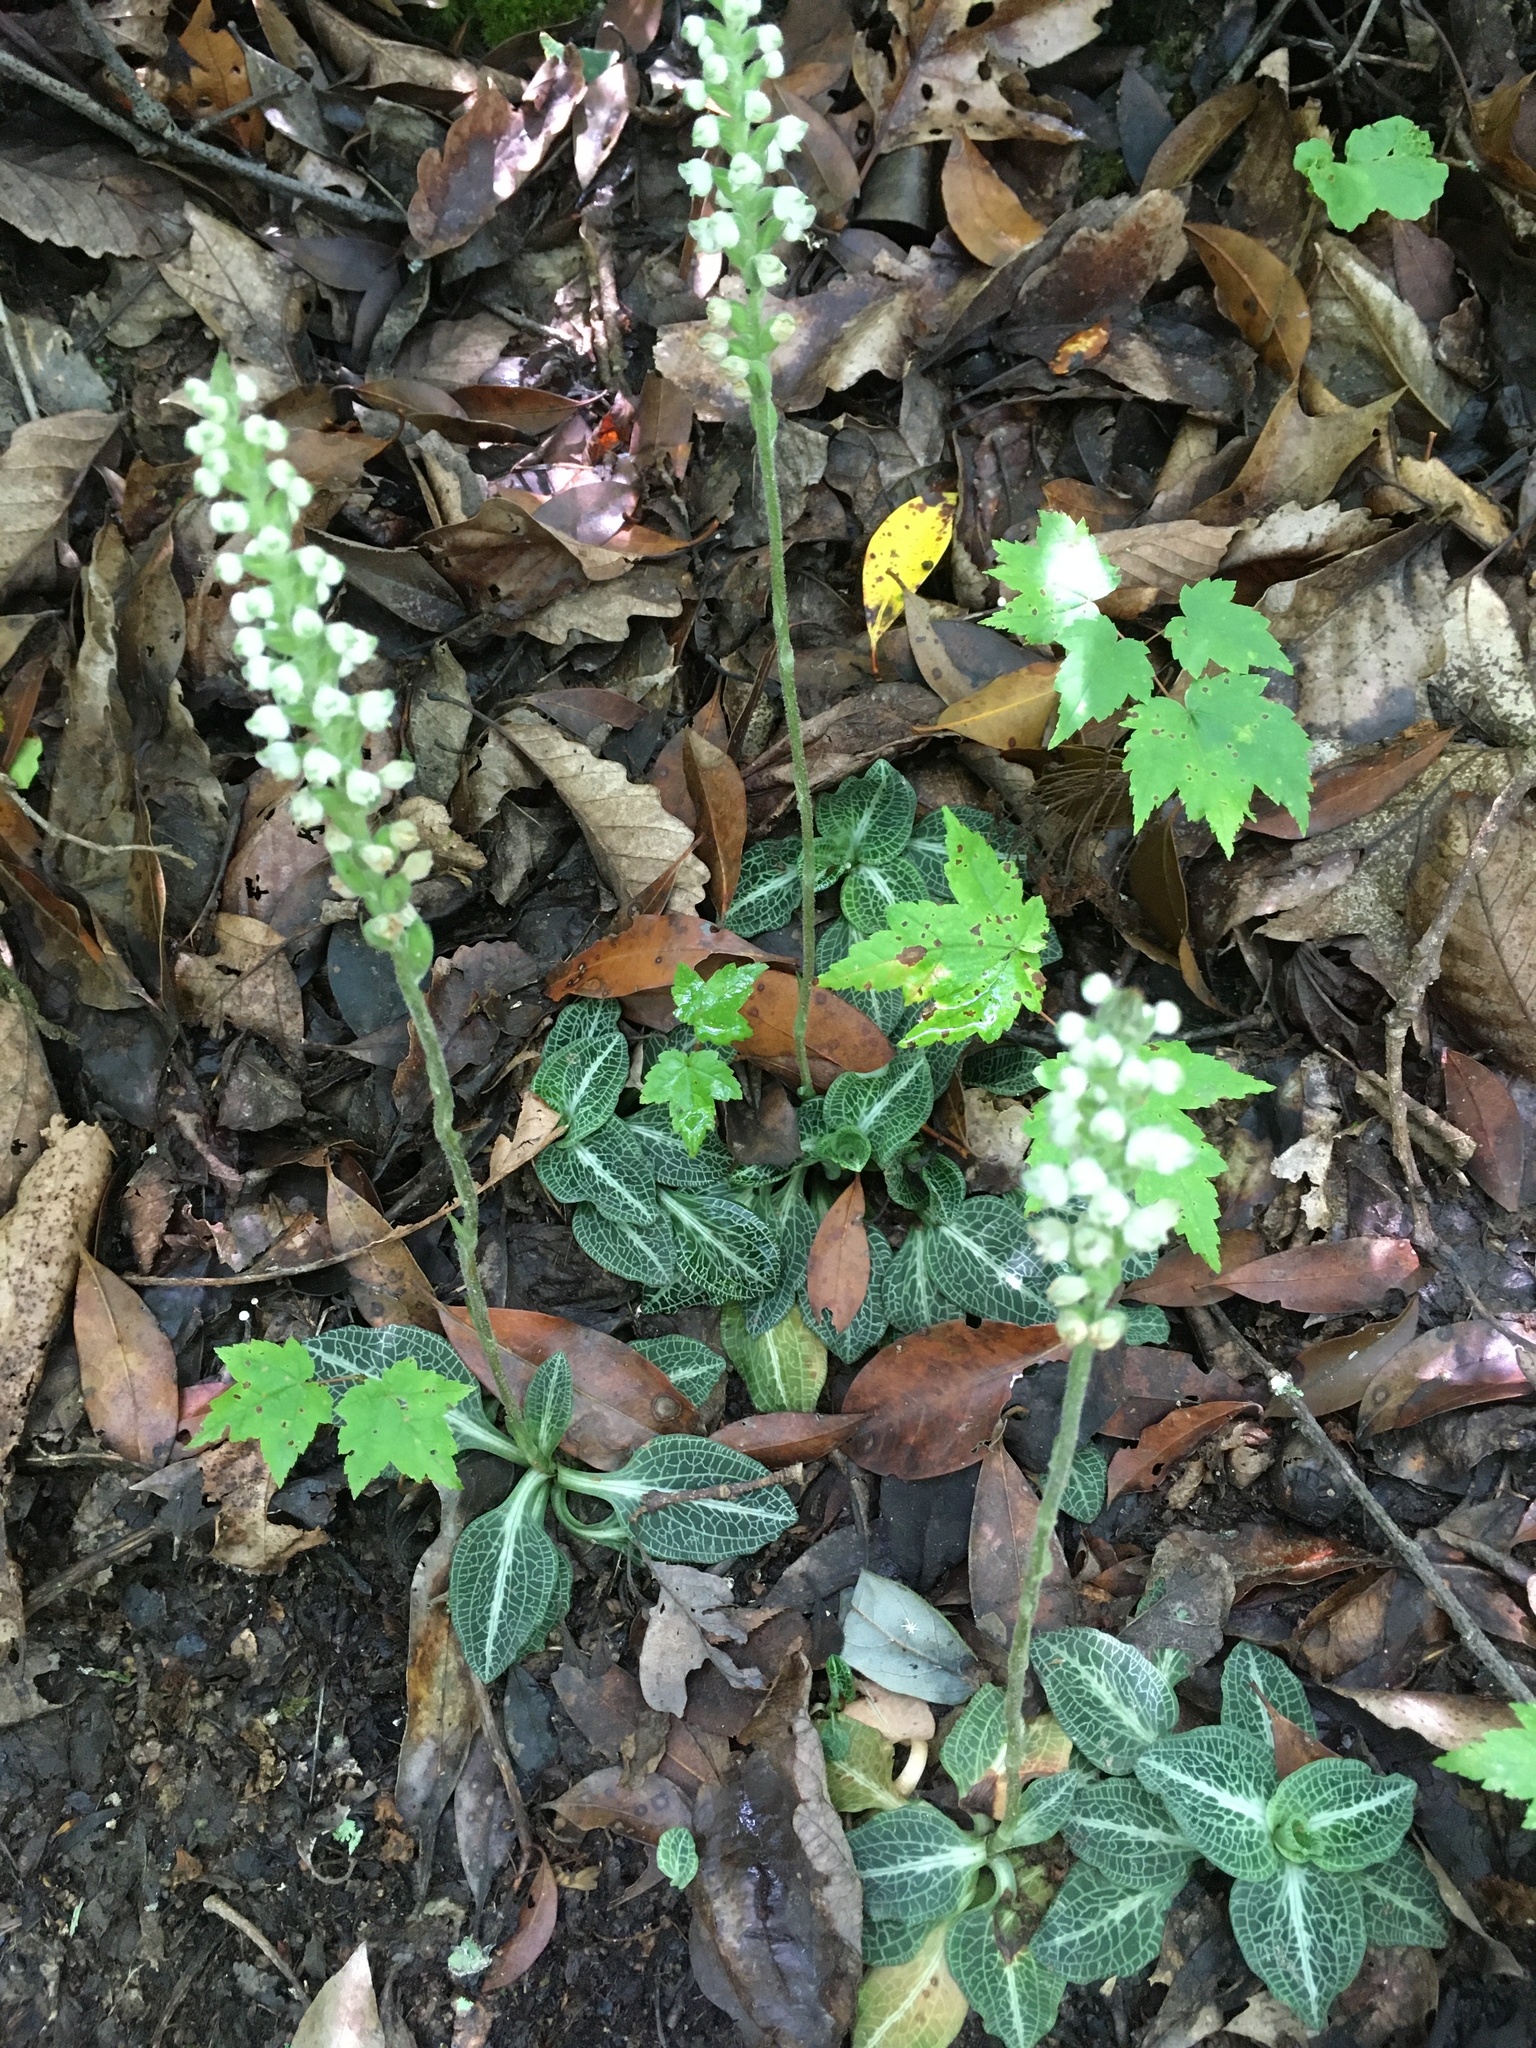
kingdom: Plantae
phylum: Tracheophyta
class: Liliopsida
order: Asparagales
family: Orchidaceae
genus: Goodyera
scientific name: Goodyera pubescens
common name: Downy rattlesnake-plantain
